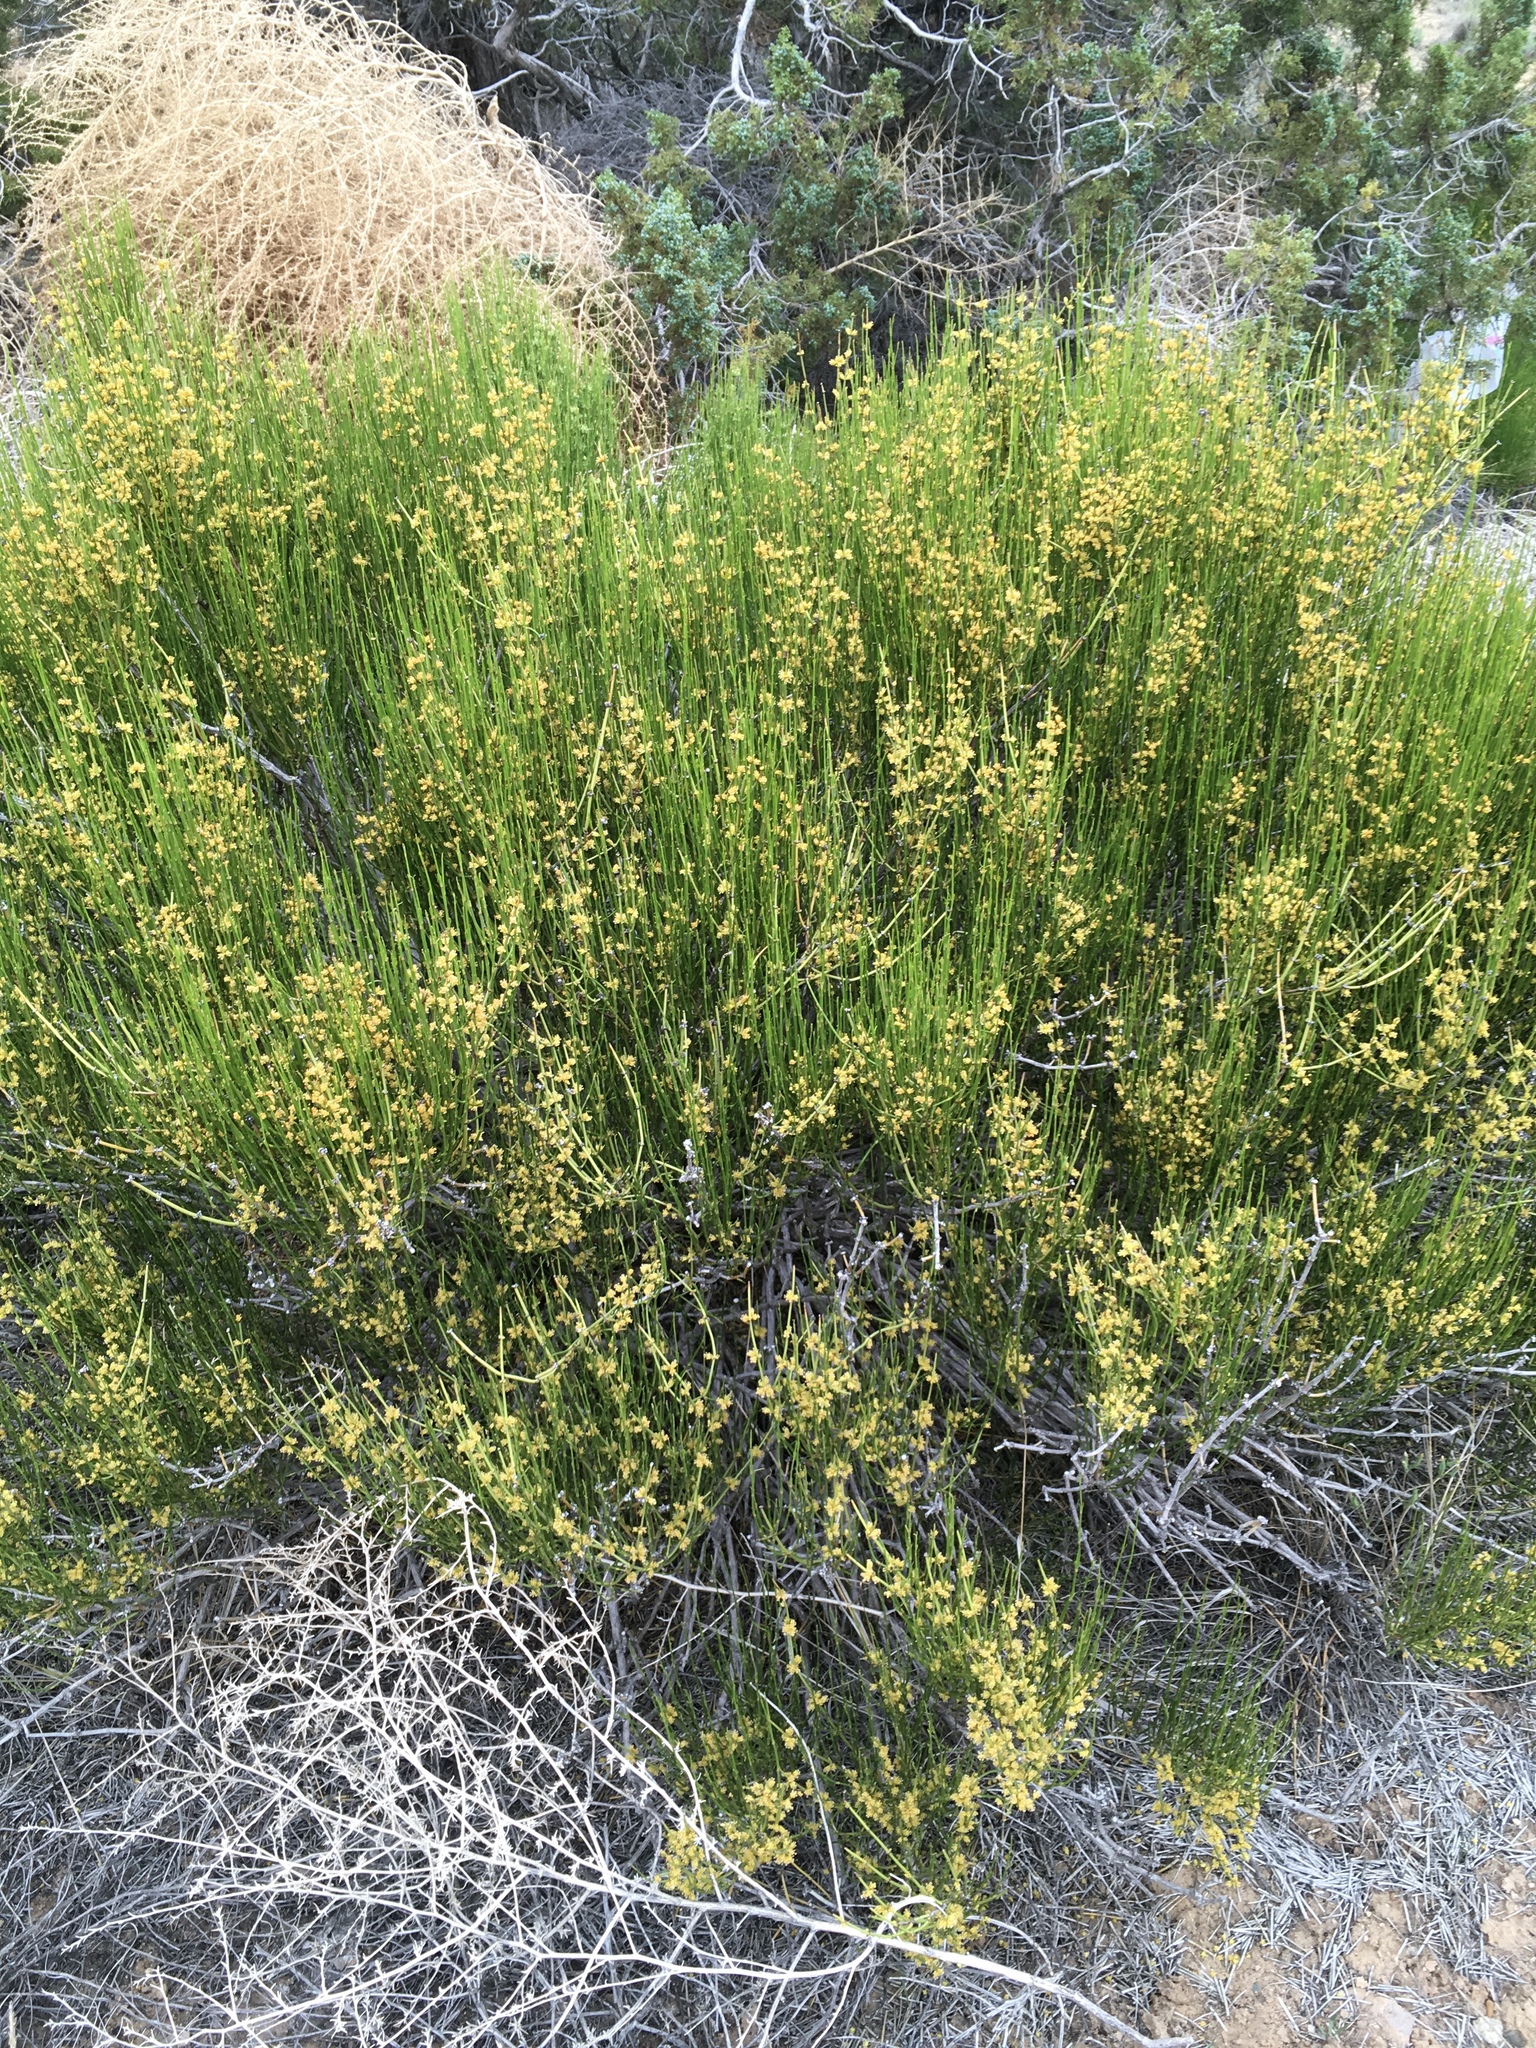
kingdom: Plantae
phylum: Tracheophyta
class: Gnetopsida
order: Ephedrales
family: Ephedraceae
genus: Ephedra
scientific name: Ephedra viridis
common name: Green ephedra
